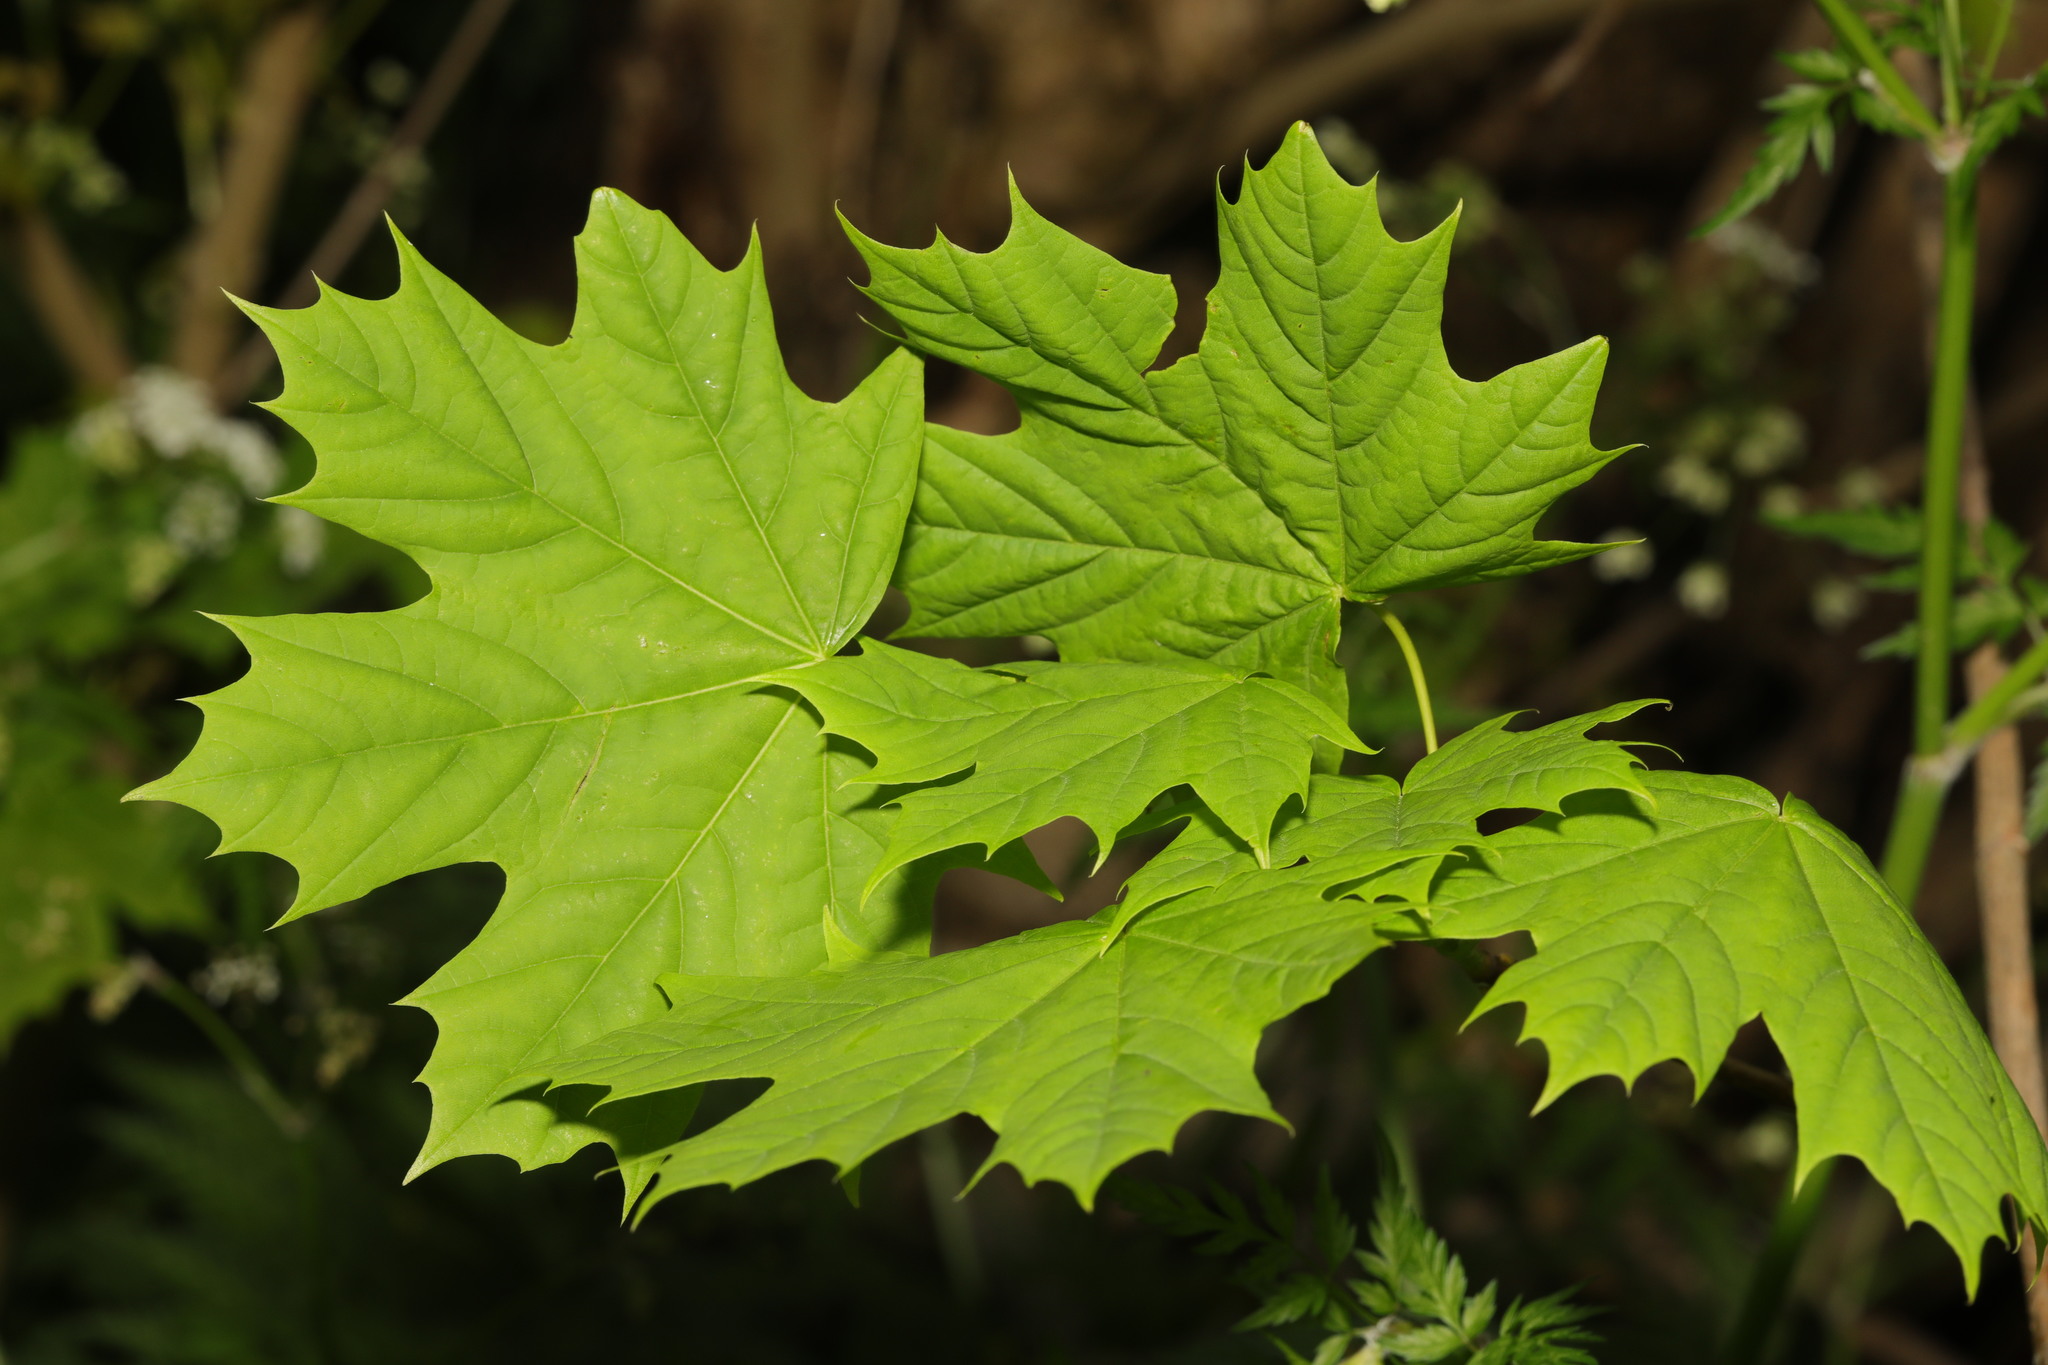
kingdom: Plantae
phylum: Tracheophyta
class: Magnoliopsida
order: Sapindales
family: Sapindaceae
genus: Acer
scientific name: Acer platanoides
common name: Norway maple
